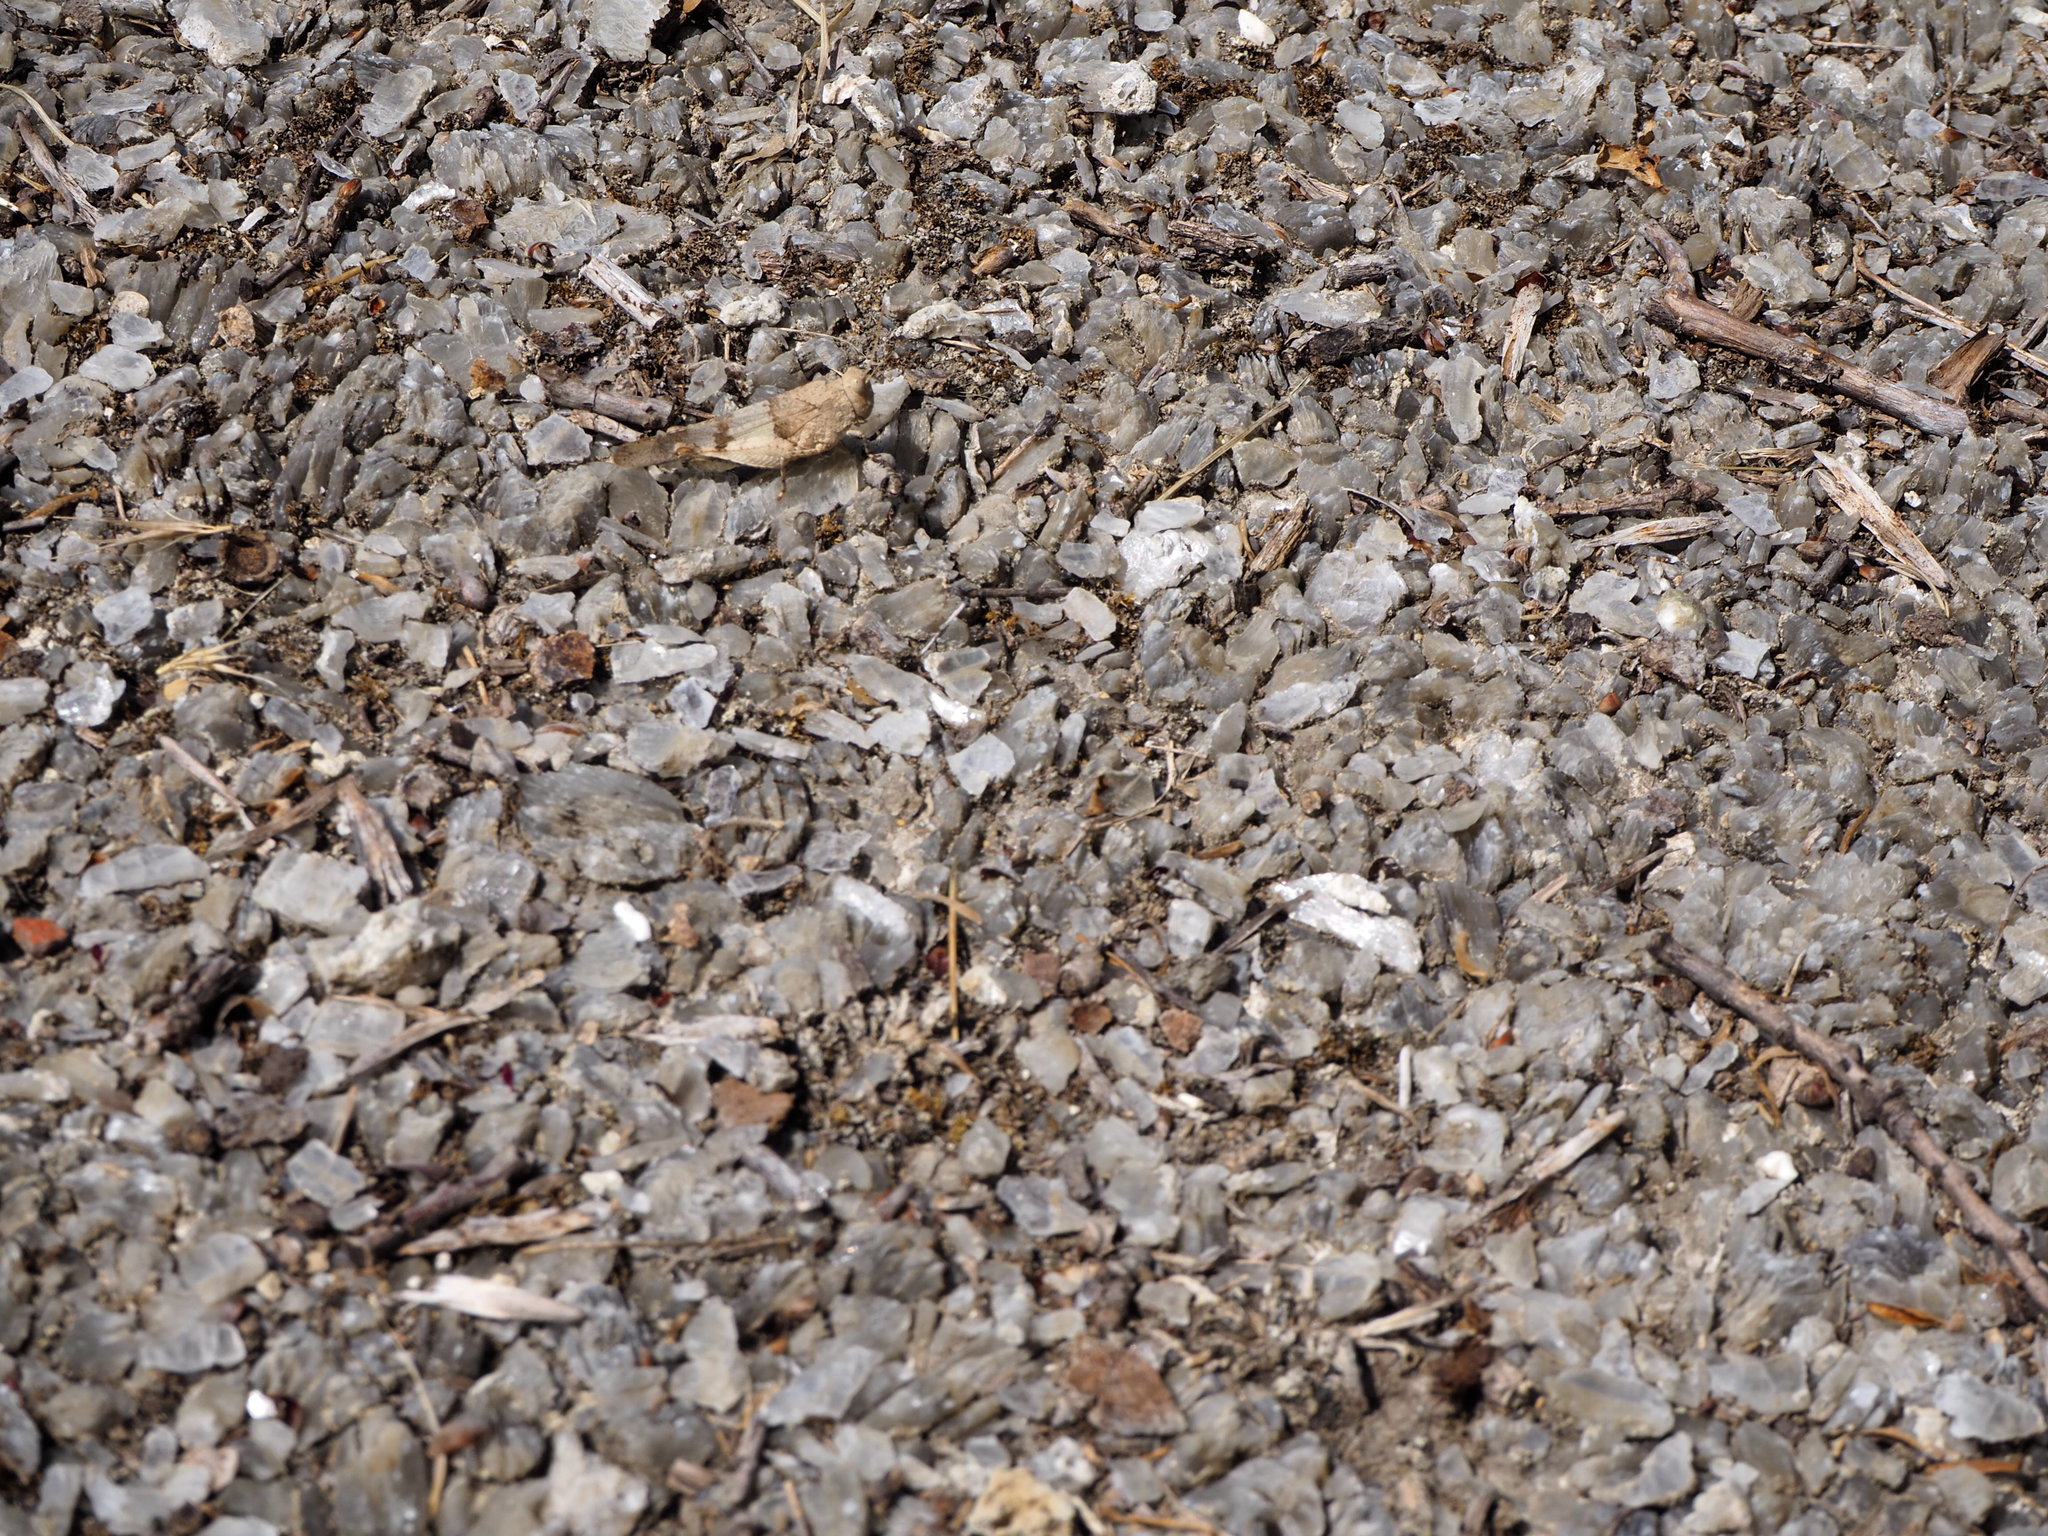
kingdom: Animalia
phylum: Arthropoda
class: Insecta
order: Orthoptera
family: Acrididae
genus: Oedipoda
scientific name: Oedipoda caerulescens
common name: Blue-winged grasshopper
